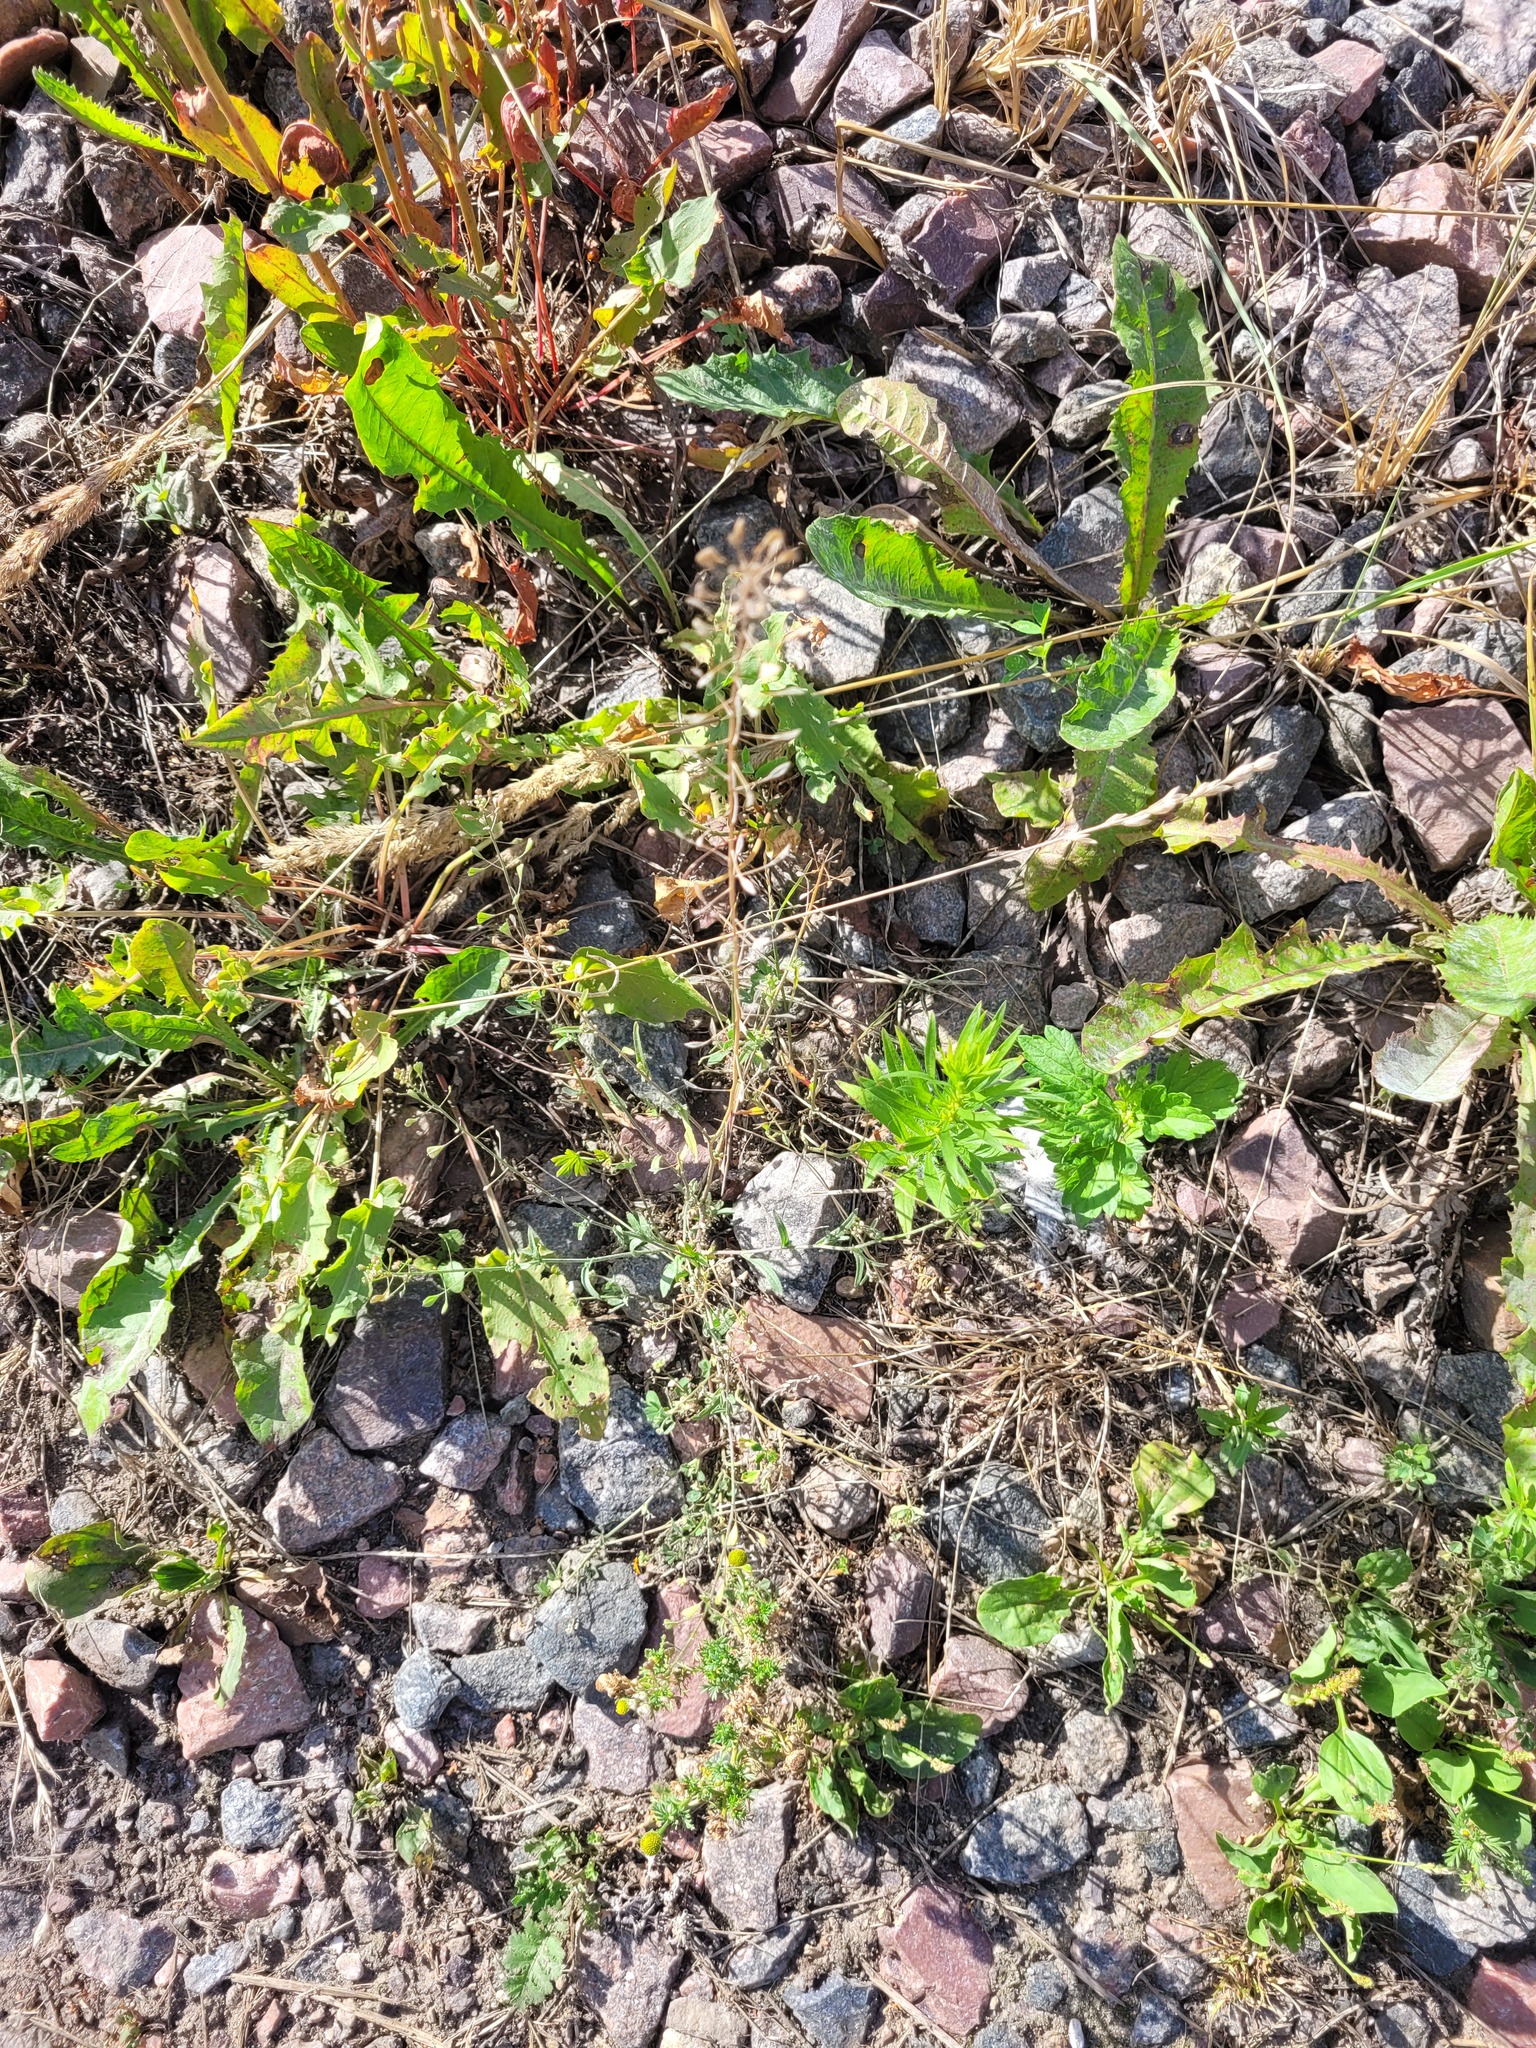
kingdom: Plantae
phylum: Tracheophyta
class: Magnoliopsida
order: Brassicales
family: Brassicaceae
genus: Capsella
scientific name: Capsella bursa-pastoris
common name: Shepherd's purse
